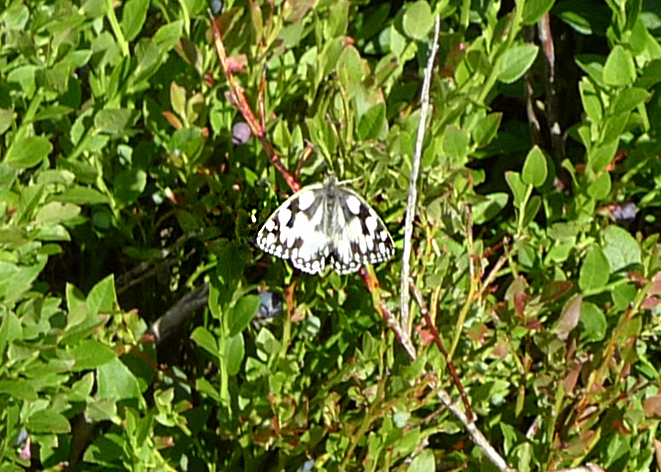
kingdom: Animalia
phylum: Arthropoda
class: Insecta
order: Lepidoptera
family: Nymphalidae
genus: Melanargia
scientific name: Melanargia galathea
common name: Marbled white
